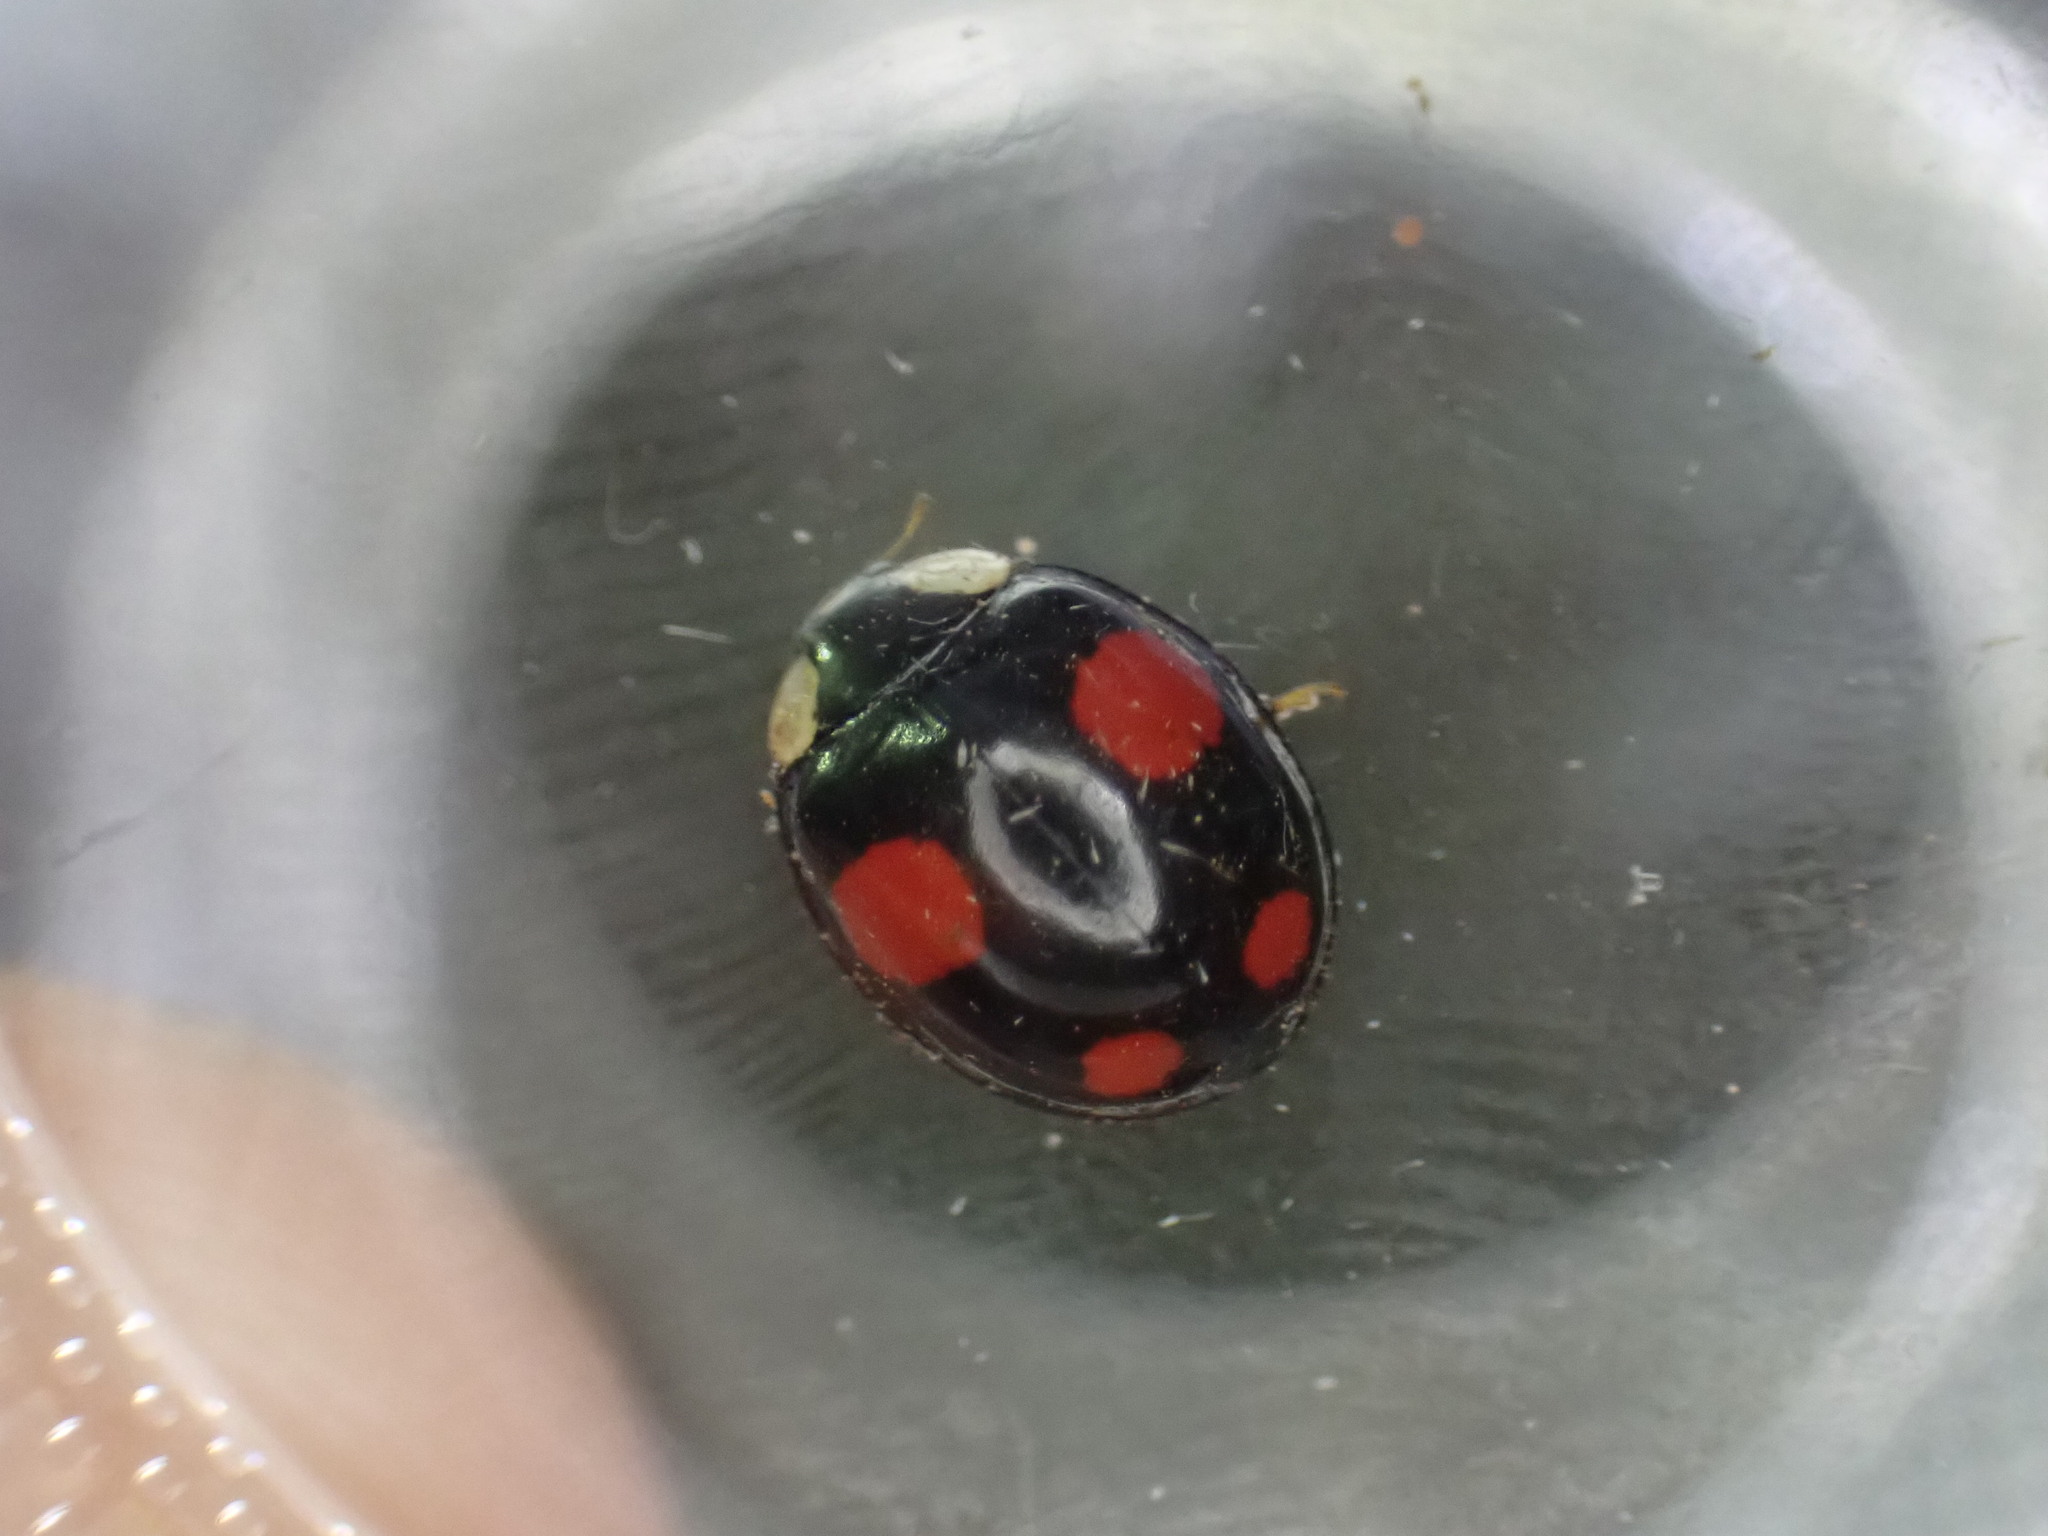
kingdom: Animalia
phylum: Arthropoda
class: Insecta
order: Coleoptera
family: Coccinellidae
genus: Harmonia
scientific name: Harmonia axyridis
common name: Harlequin ladybird
